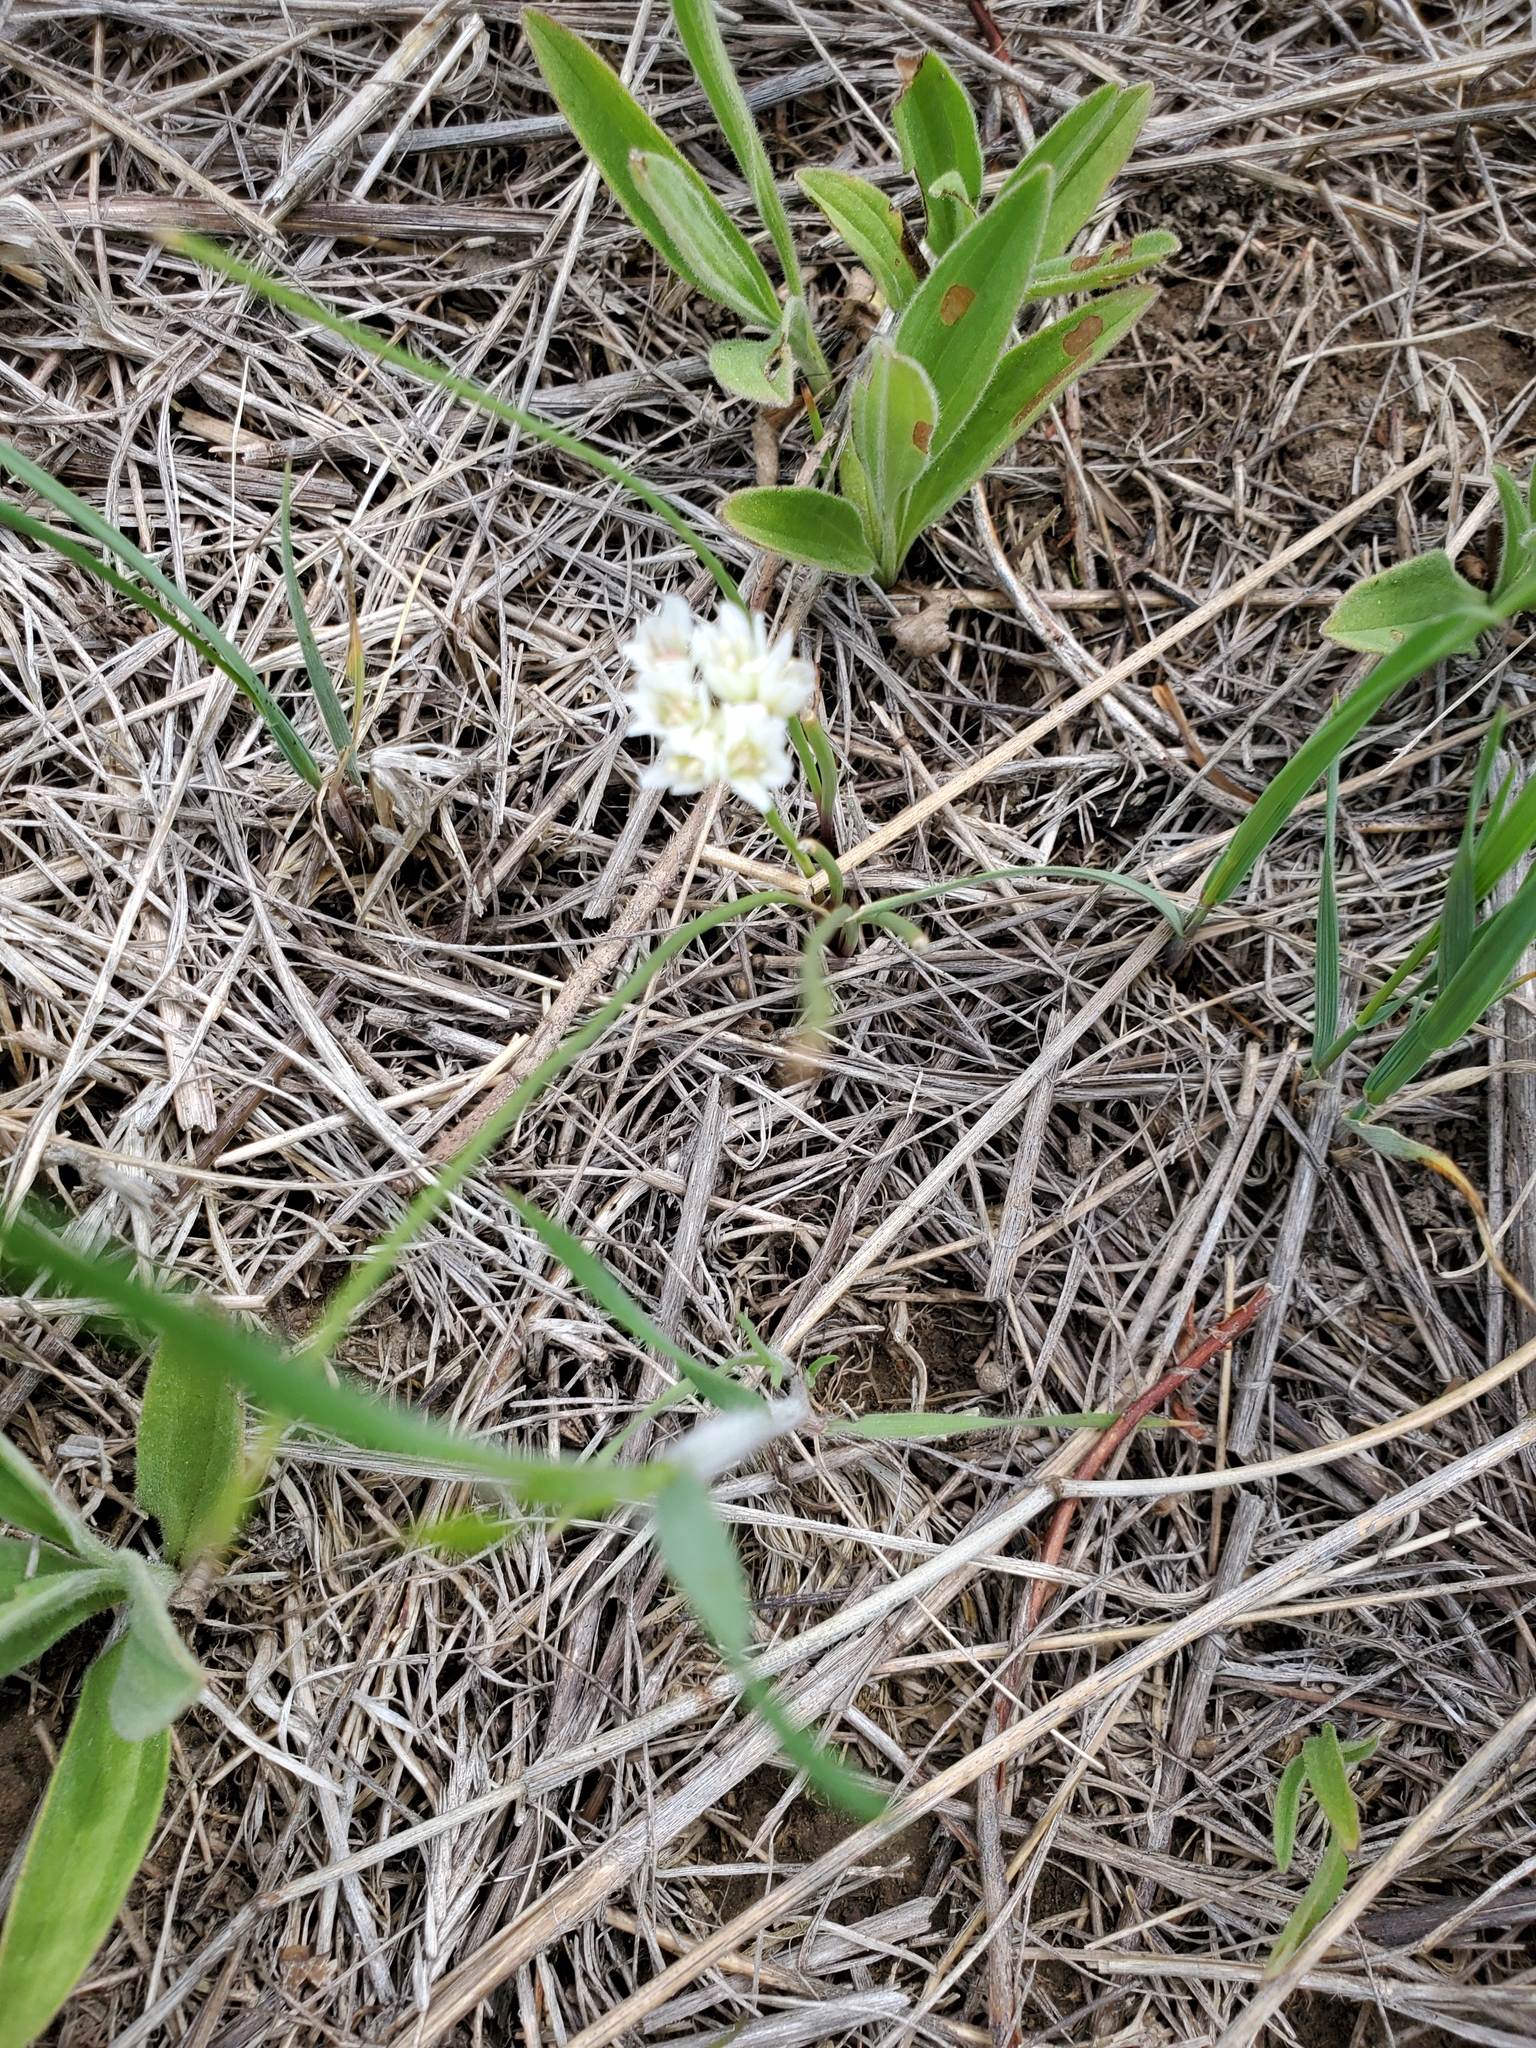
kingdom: Plantae
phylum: Tracheophyta
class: Liliopsida
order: Asparagales
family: Amaryllidaceae
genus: Allium
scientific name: Allium textile
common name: Prairie onion
